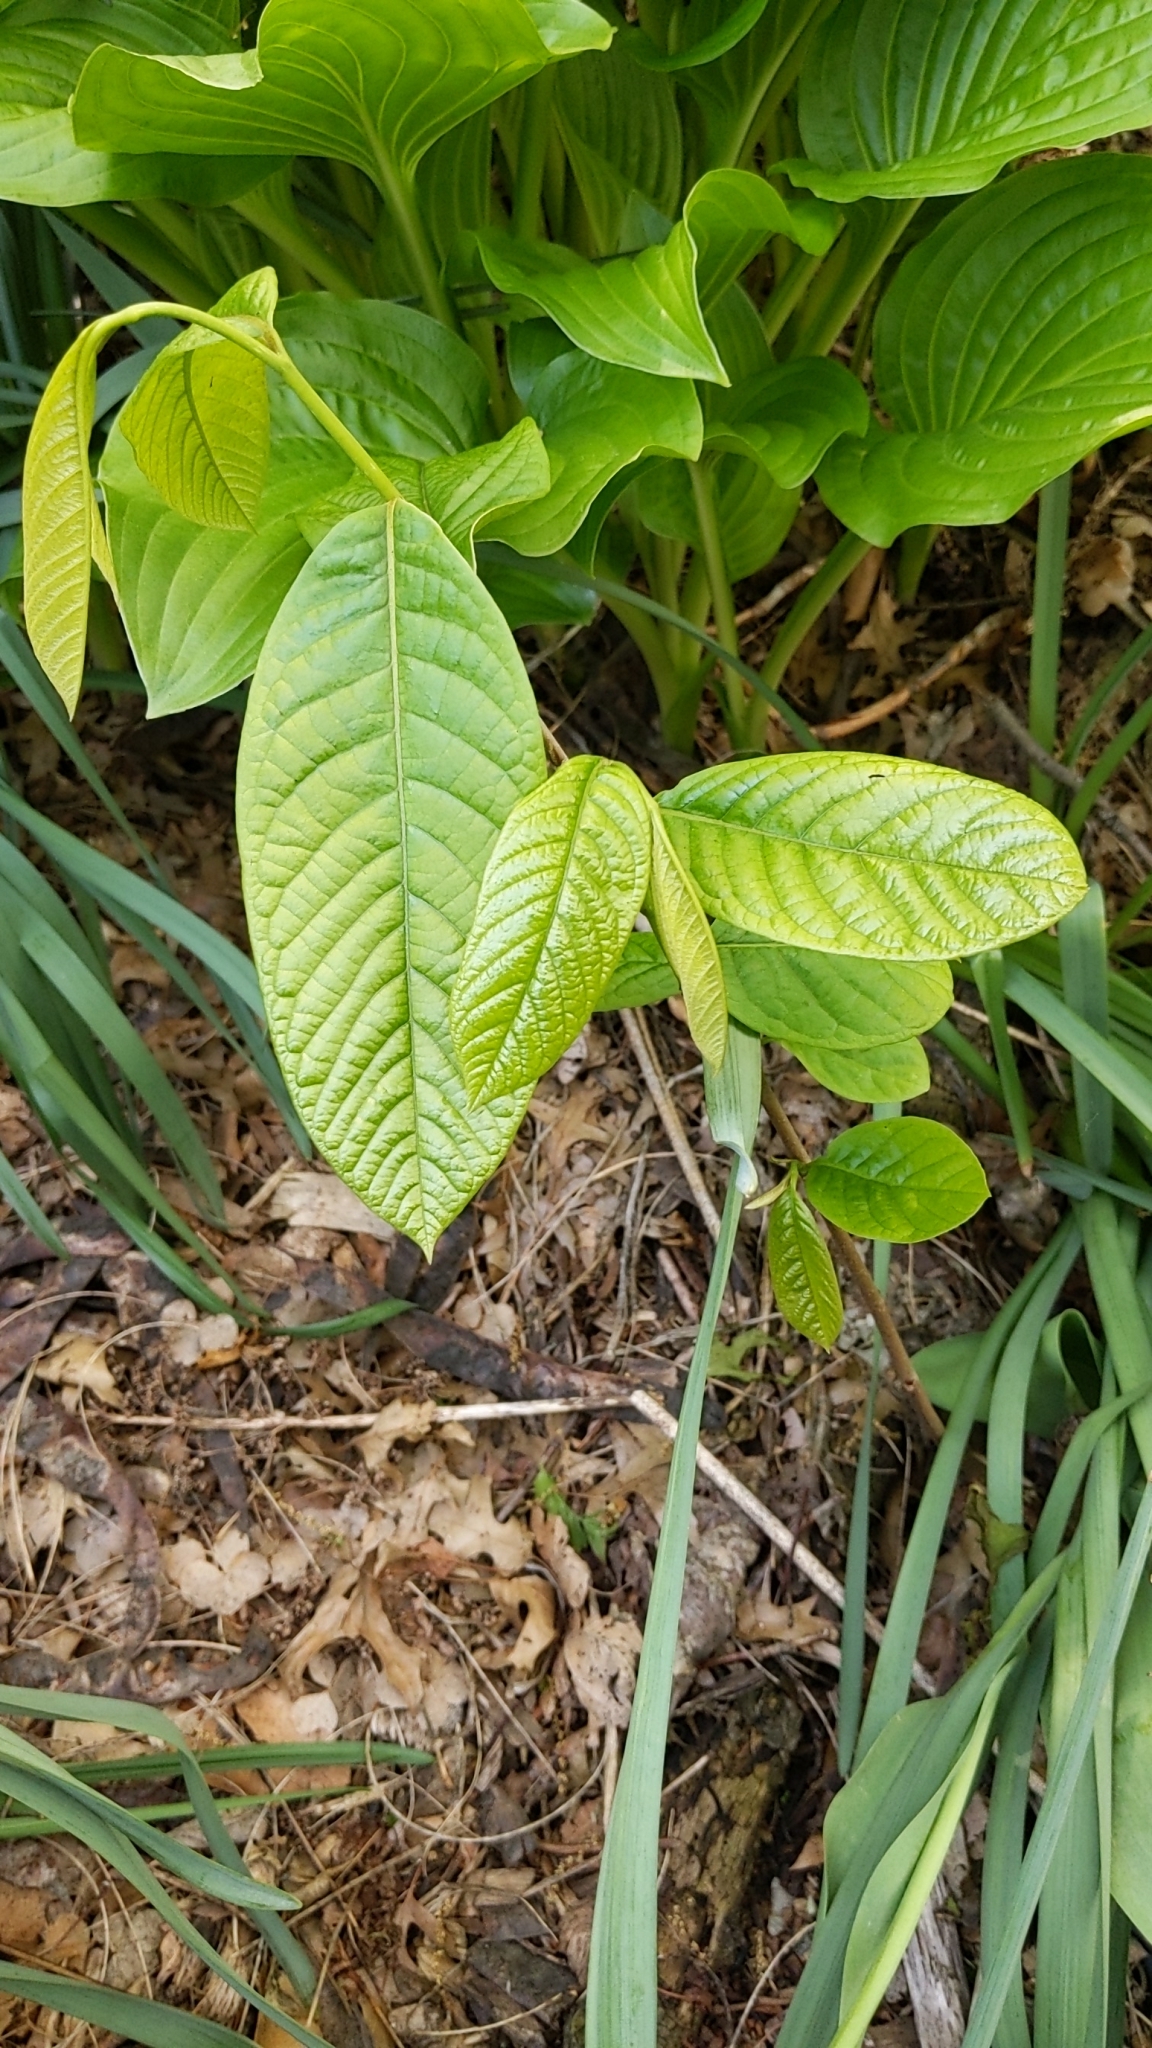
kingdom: Plantae
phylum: Tracheophyta
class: Magnoliopsida
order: Magnoliales
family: Annonaceae
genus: Asimina
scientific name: Asimina triloba
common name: Dog-banana
